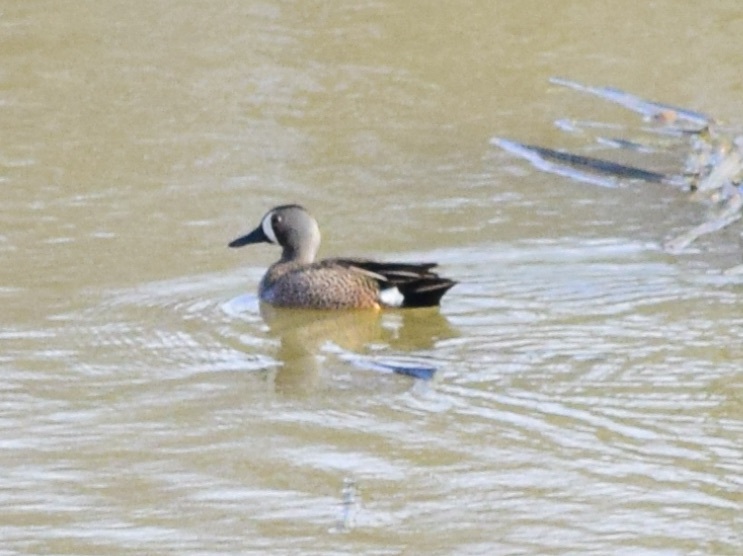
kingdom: Animalia
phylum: Chordata
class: Aves
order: Anseriformes
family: Anatidae
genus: Spatula
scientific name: Spatula discors
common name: Blue-winged teal
